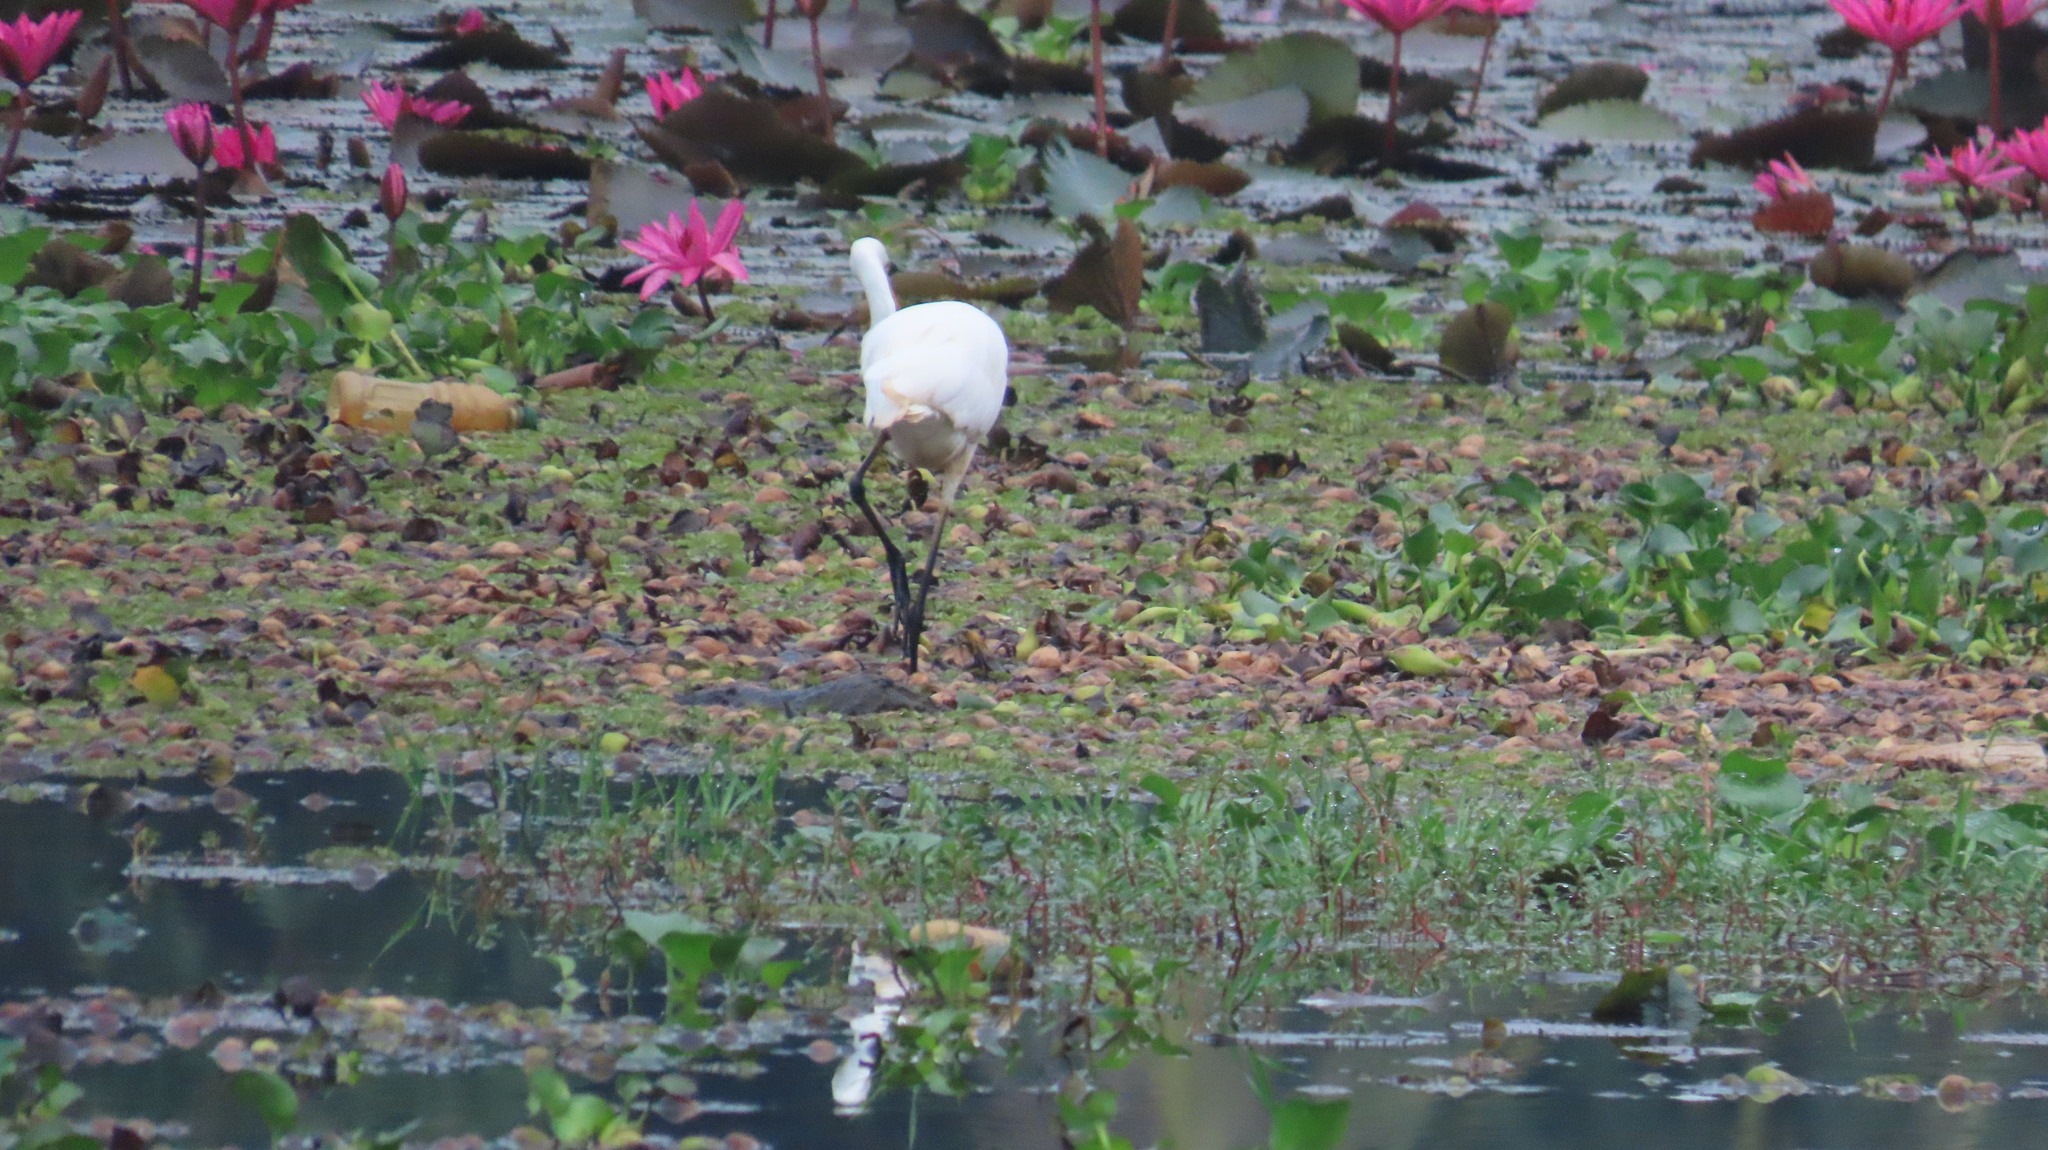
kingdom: Animalia
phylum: Chordata
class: Aves
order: Pelecaniformes
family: Ardeidae
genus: Egretta
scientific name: Egretta intermedia
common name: Intermediate egret
